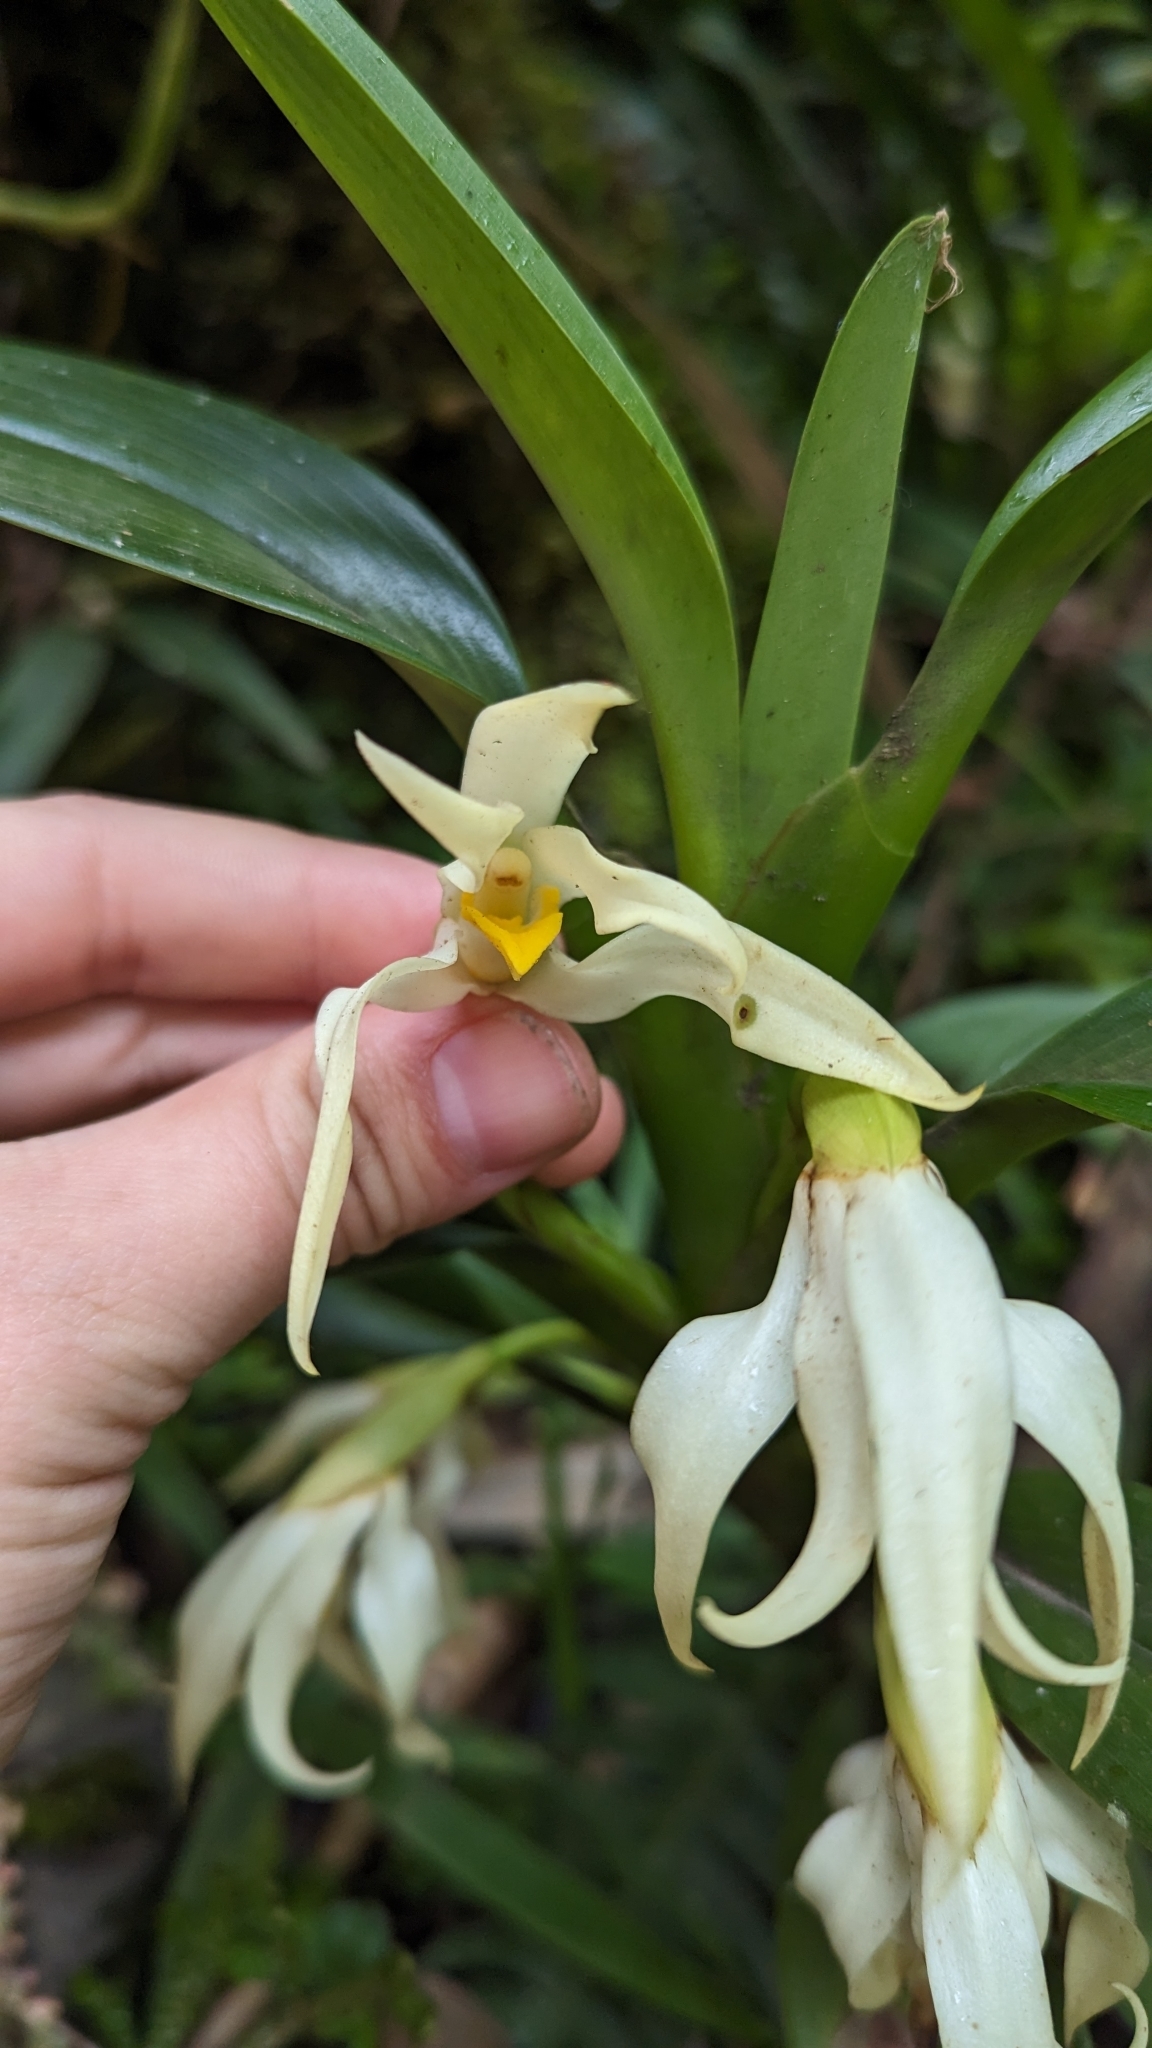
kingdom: Plantae
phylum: Tracheophyta
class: Liliopsida
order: Asparagales
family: Orchidaceae
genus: Maxillaria
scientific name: Maxillaria inaudita
